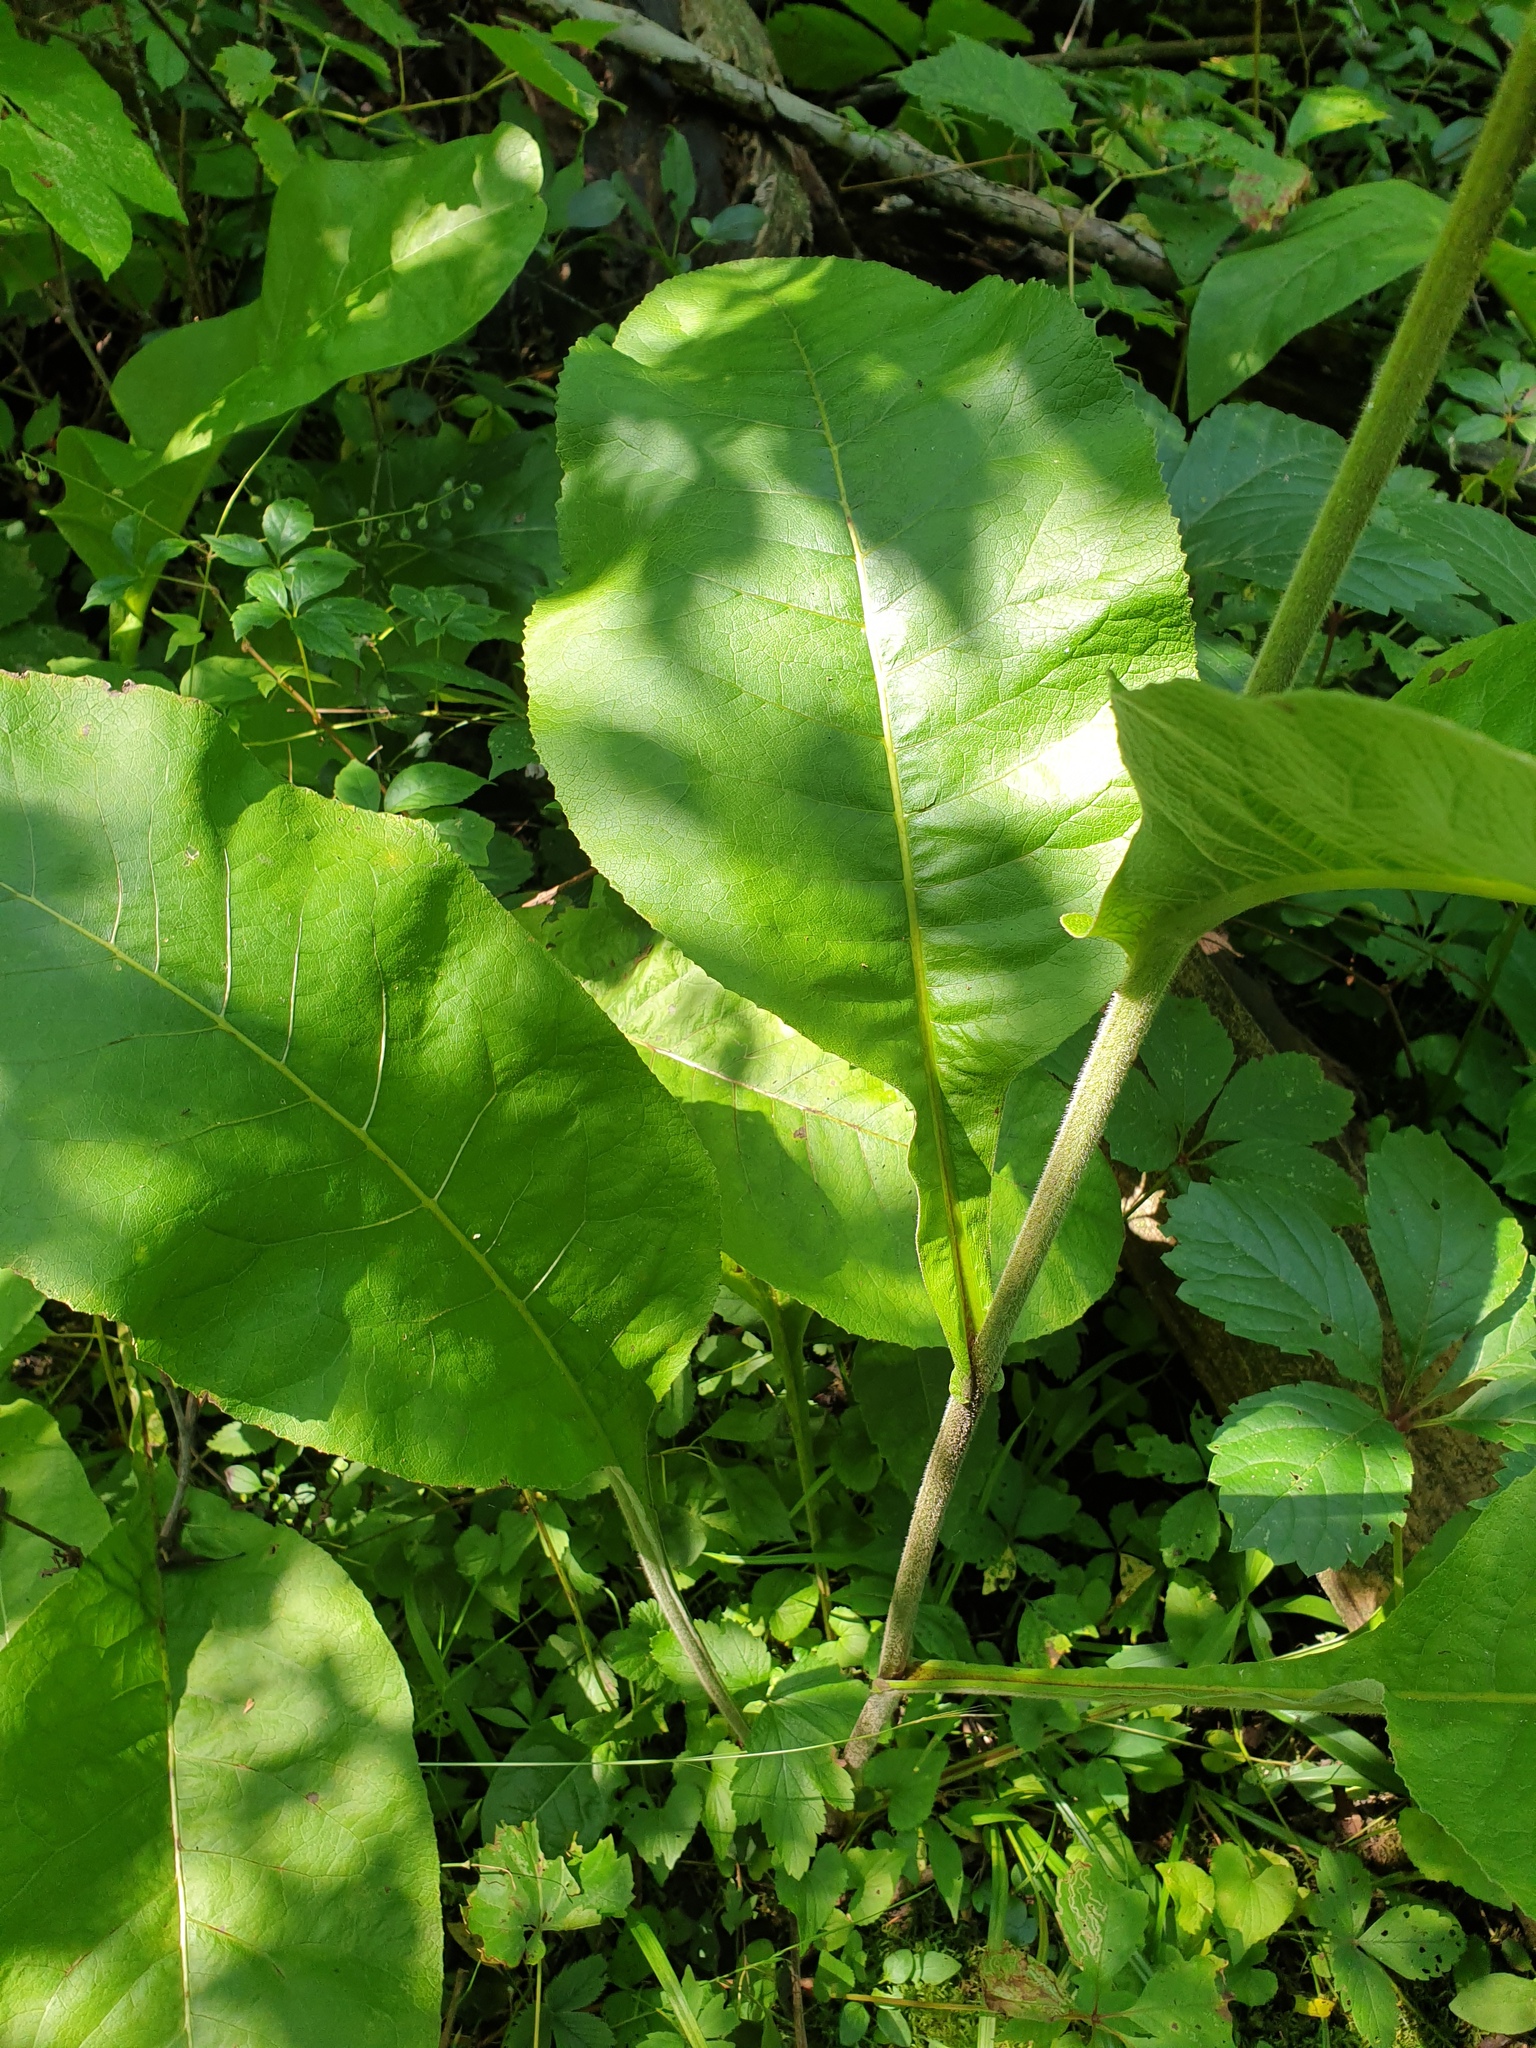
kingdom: Plantae
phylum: Tracheophyta
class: Magnoliopsida
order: Asterales
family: Asteraceae
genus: Inula
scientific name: Inula helenium
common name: Elecampane
